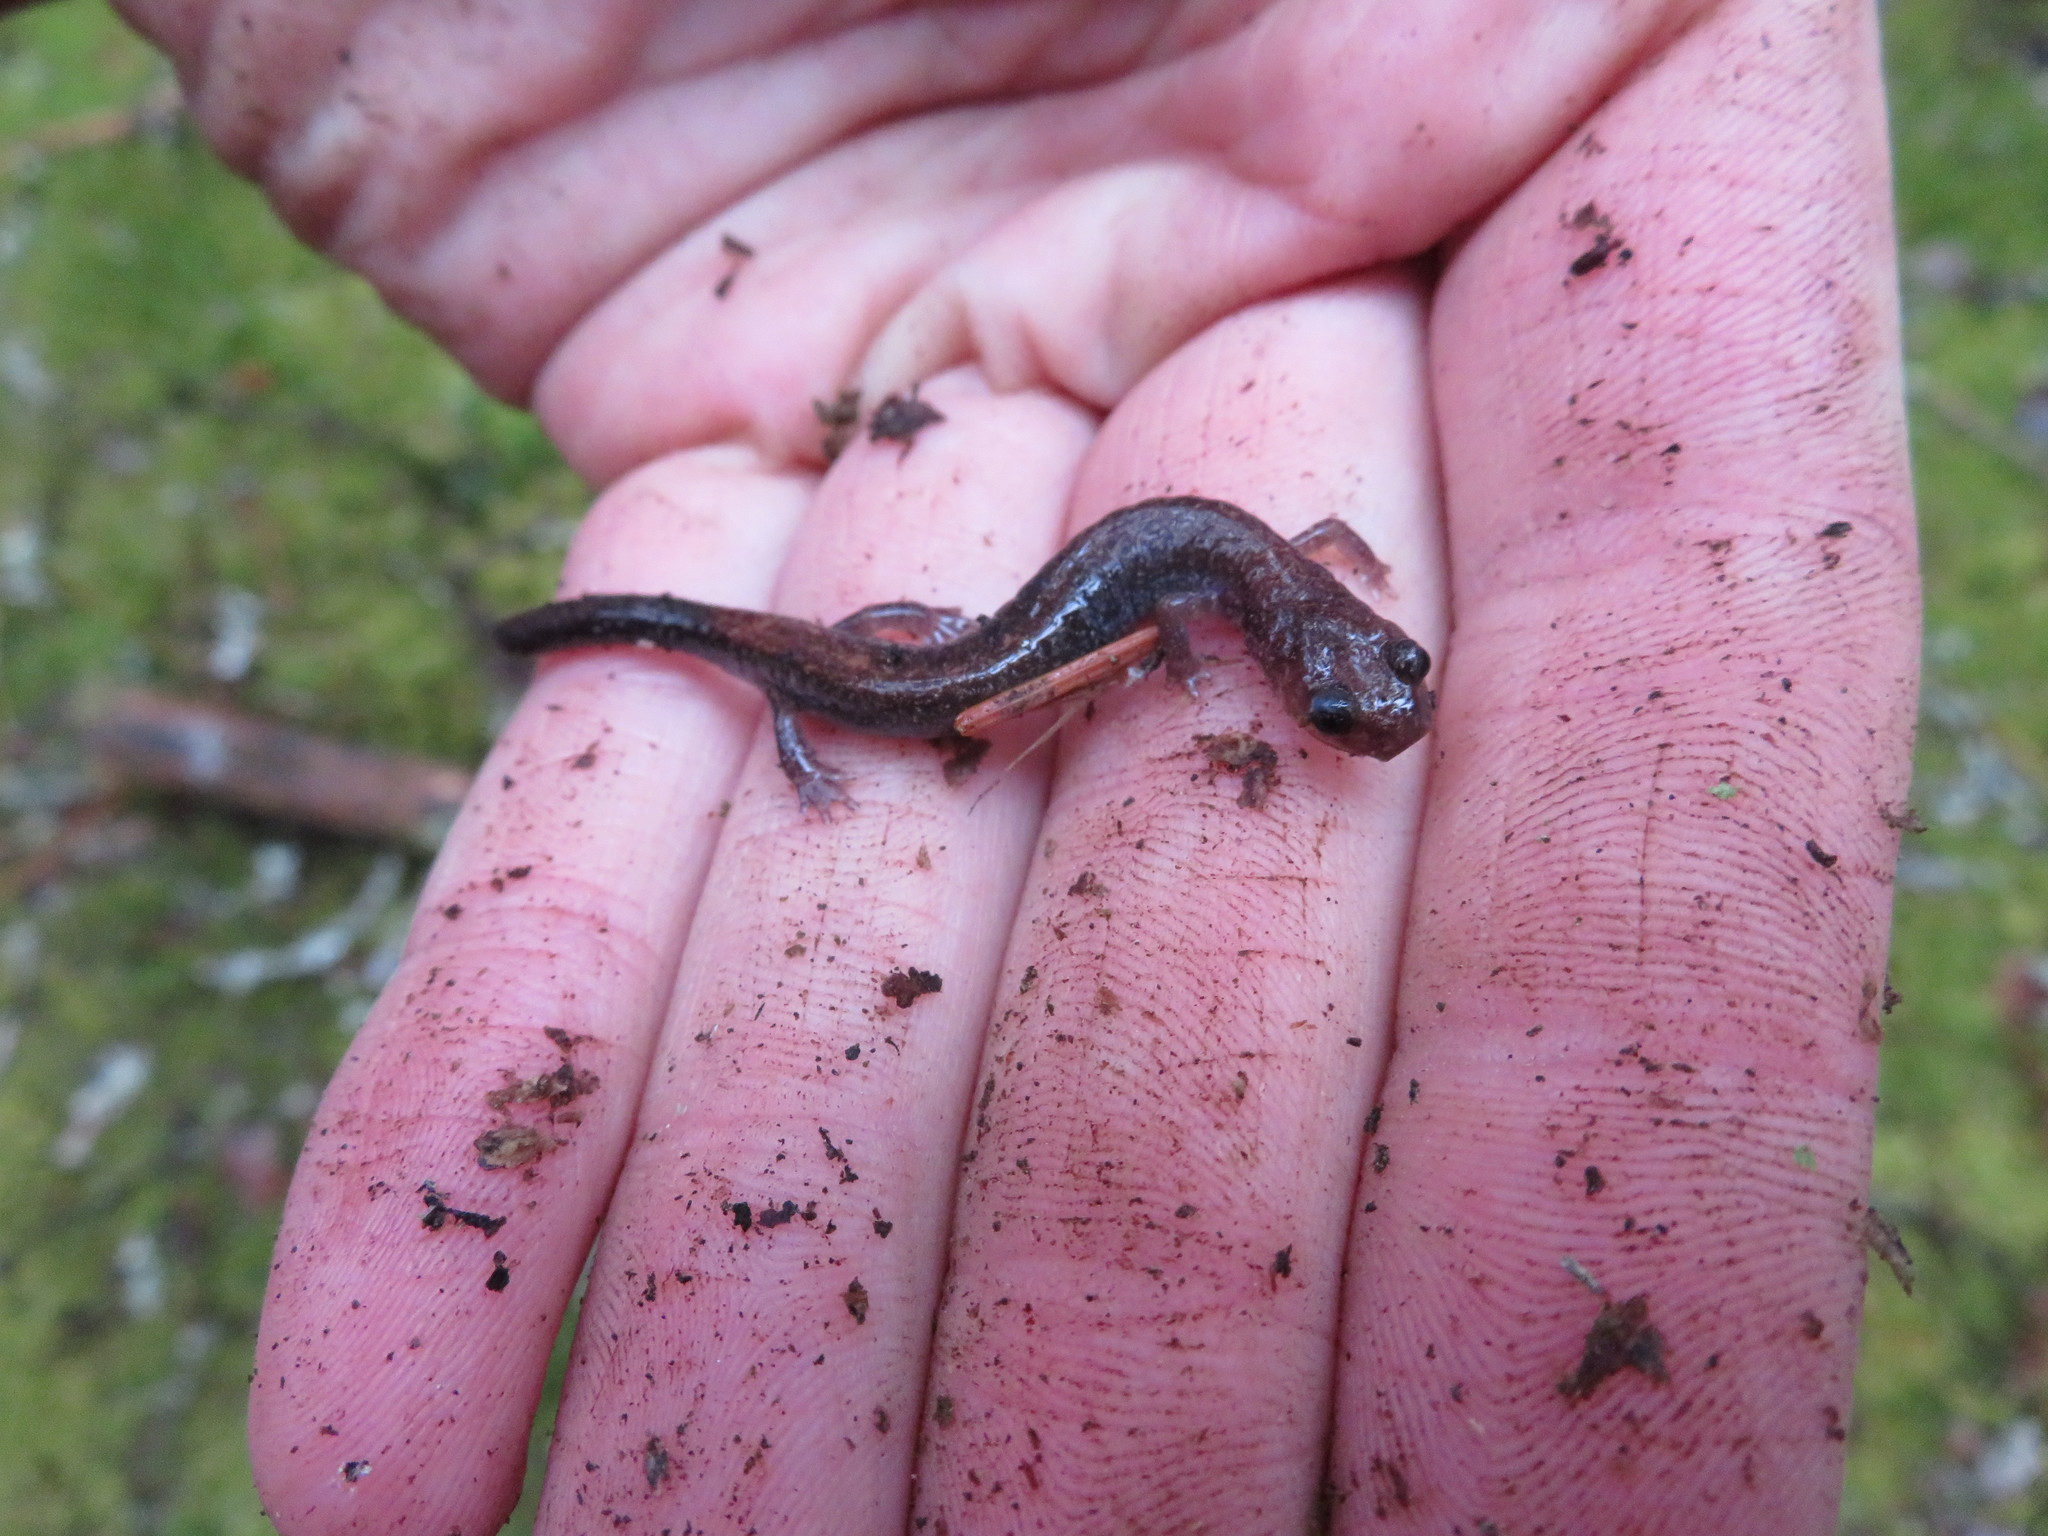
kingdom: Animalia
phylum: Chordata
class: Amphibia
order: Caudata
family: Plethodontidae
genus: Plethodon
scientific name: Plethodon cinereus
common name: Redback salamander
